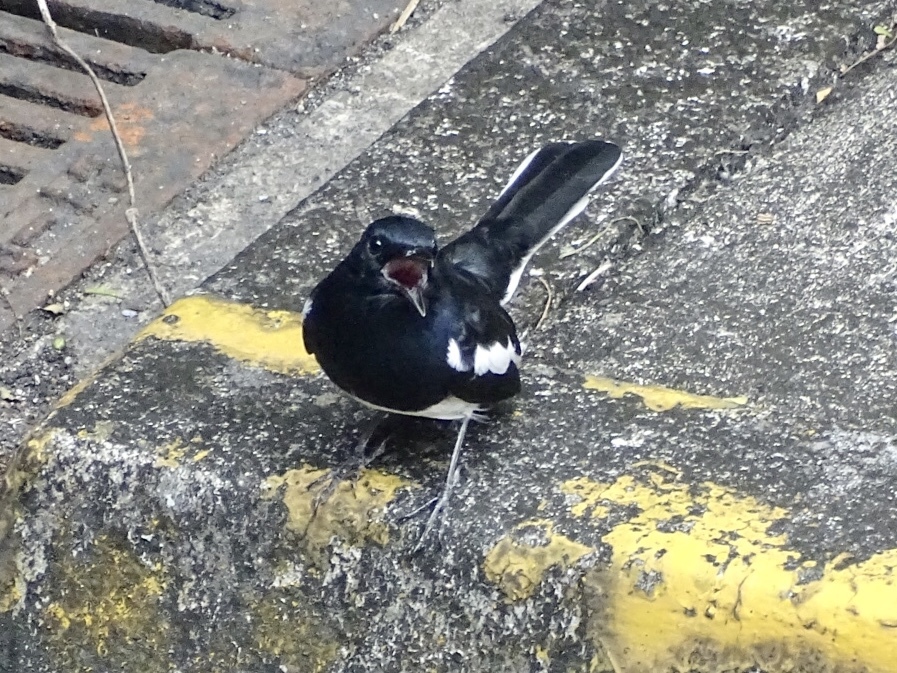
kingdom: Animalia
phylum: Chordata
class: Aves
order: Passeriformes
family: Muscicapidae
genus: Copsychus
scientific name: Copsychus saularis
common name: Oriental magpie-robin
